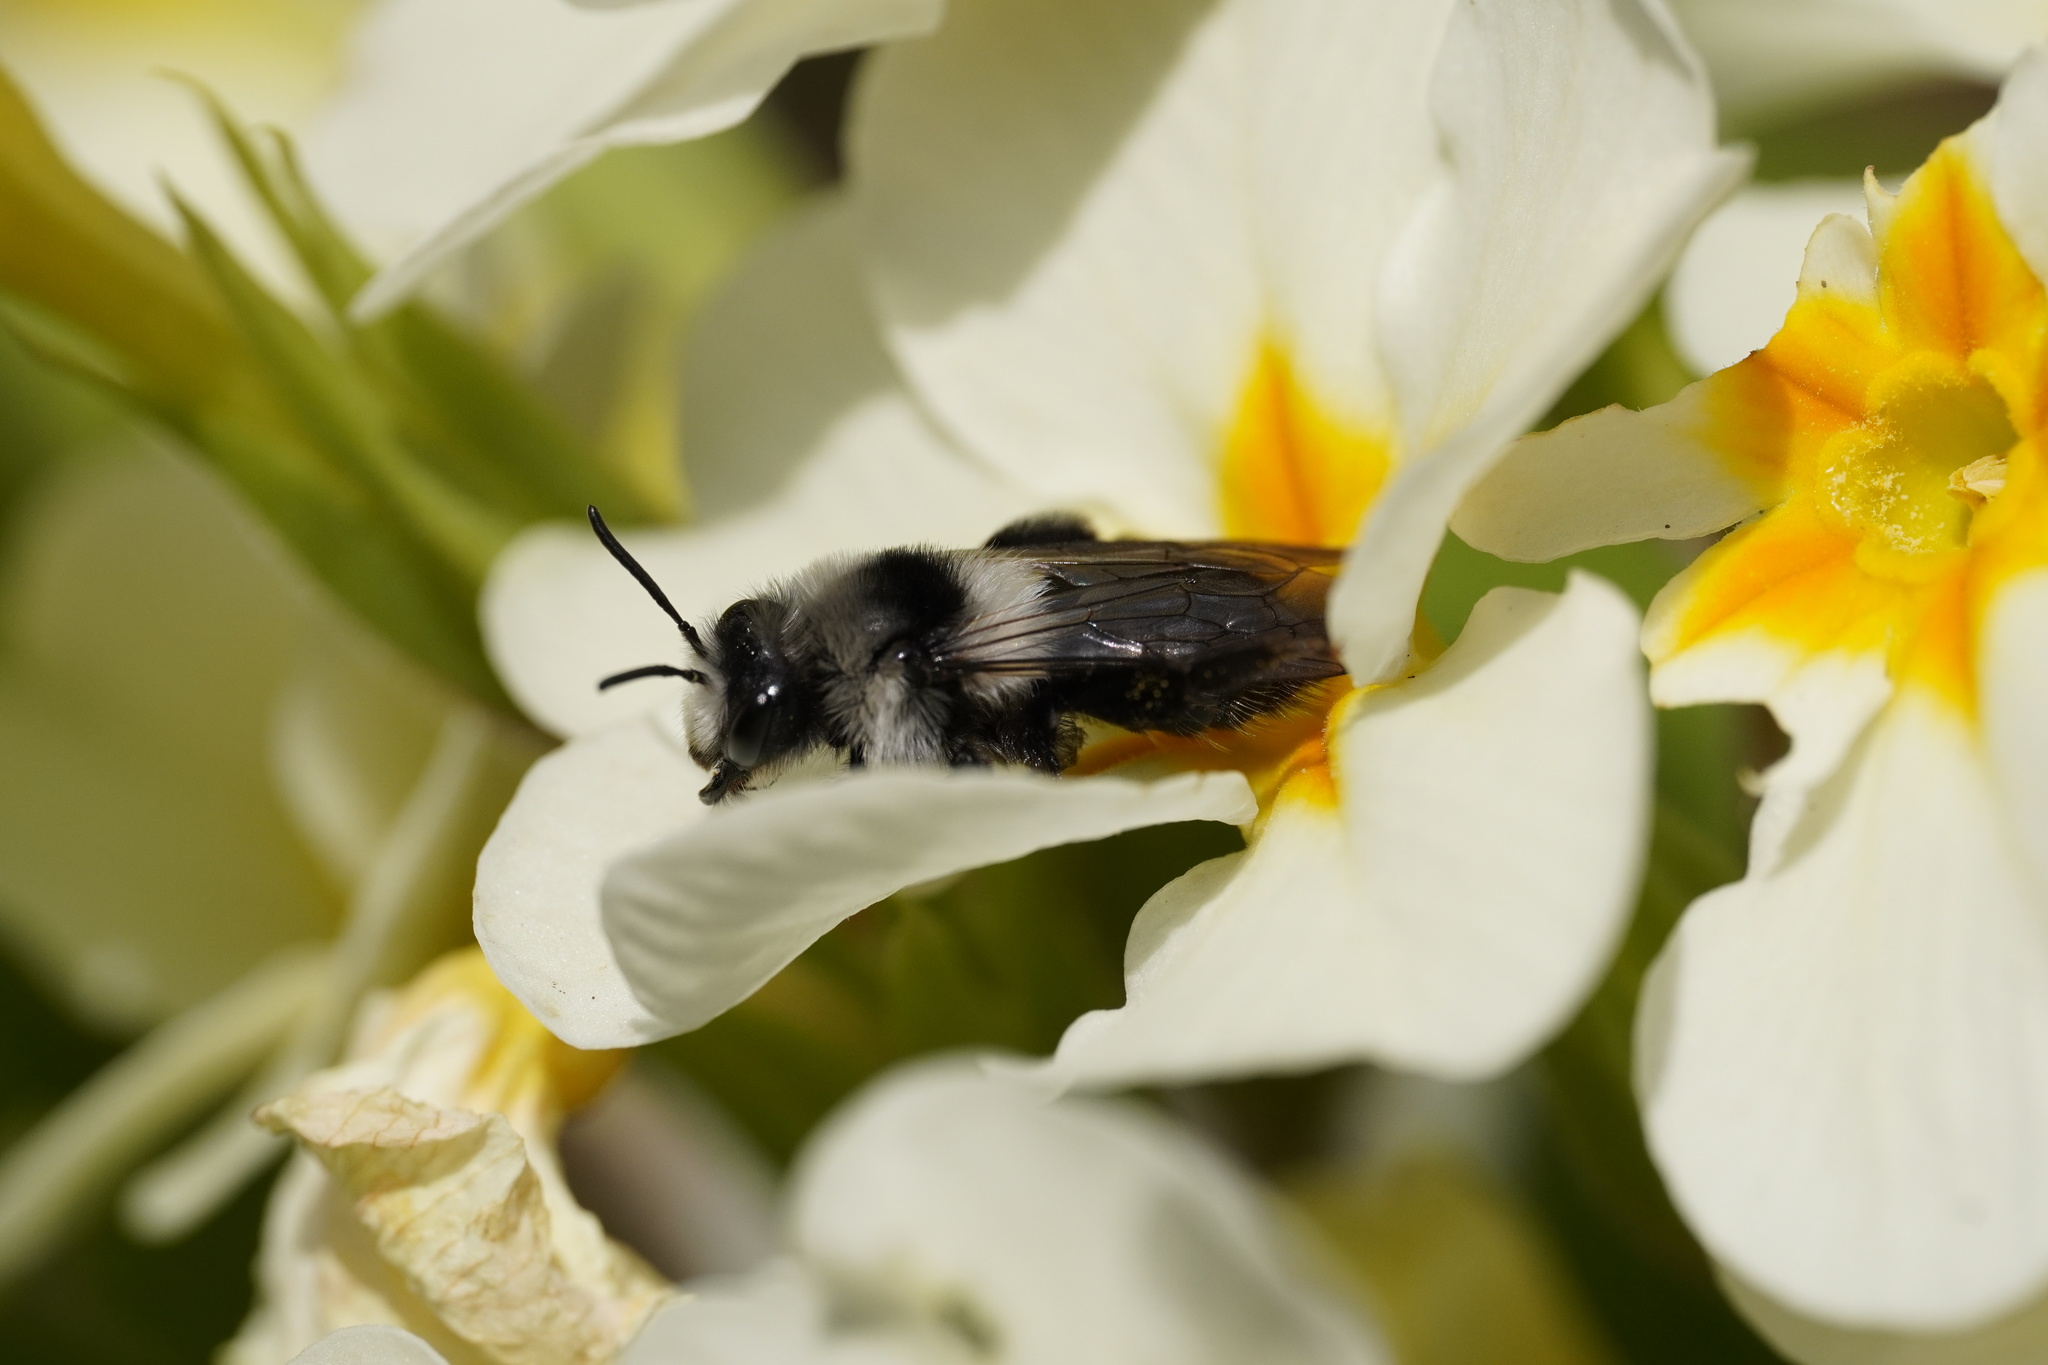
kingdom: Animalia
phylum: Arthropoda
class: Insecta
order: Hymenoptera
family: Andrenidae
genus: Andrena
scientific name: Andrena cineraria
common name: Ashy mining bee
